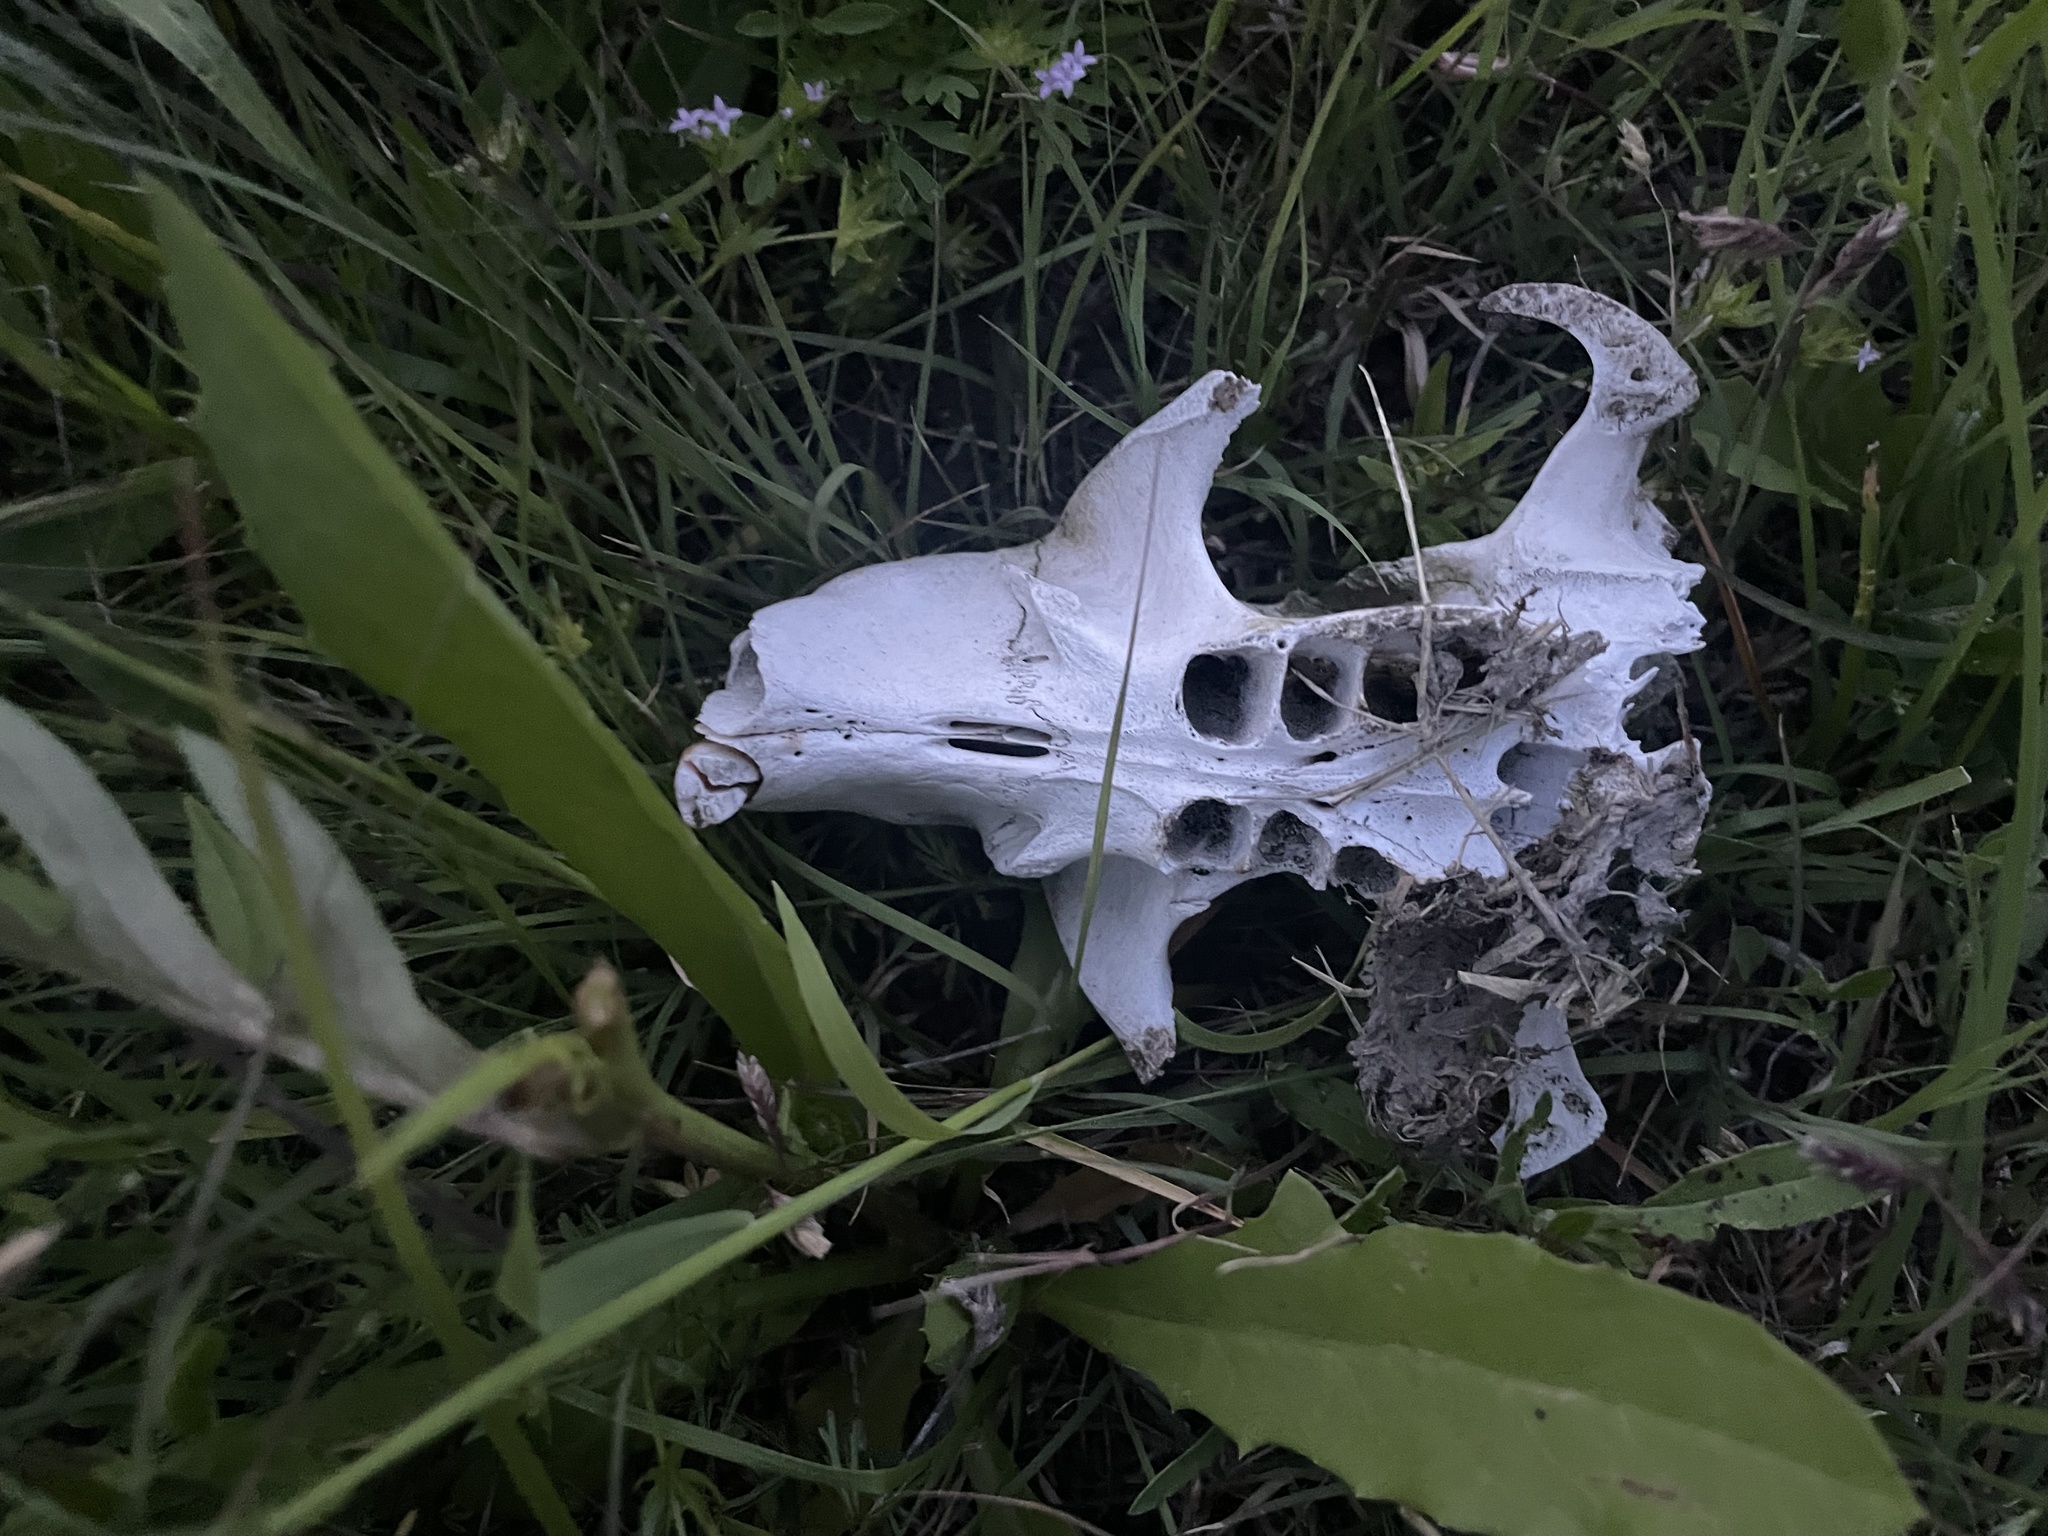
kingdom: Animalia
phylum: Chordata
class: Mammalia
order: Rodentia
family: Castoridae
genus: Castor
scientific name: Castor canadensis
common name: American beaver
